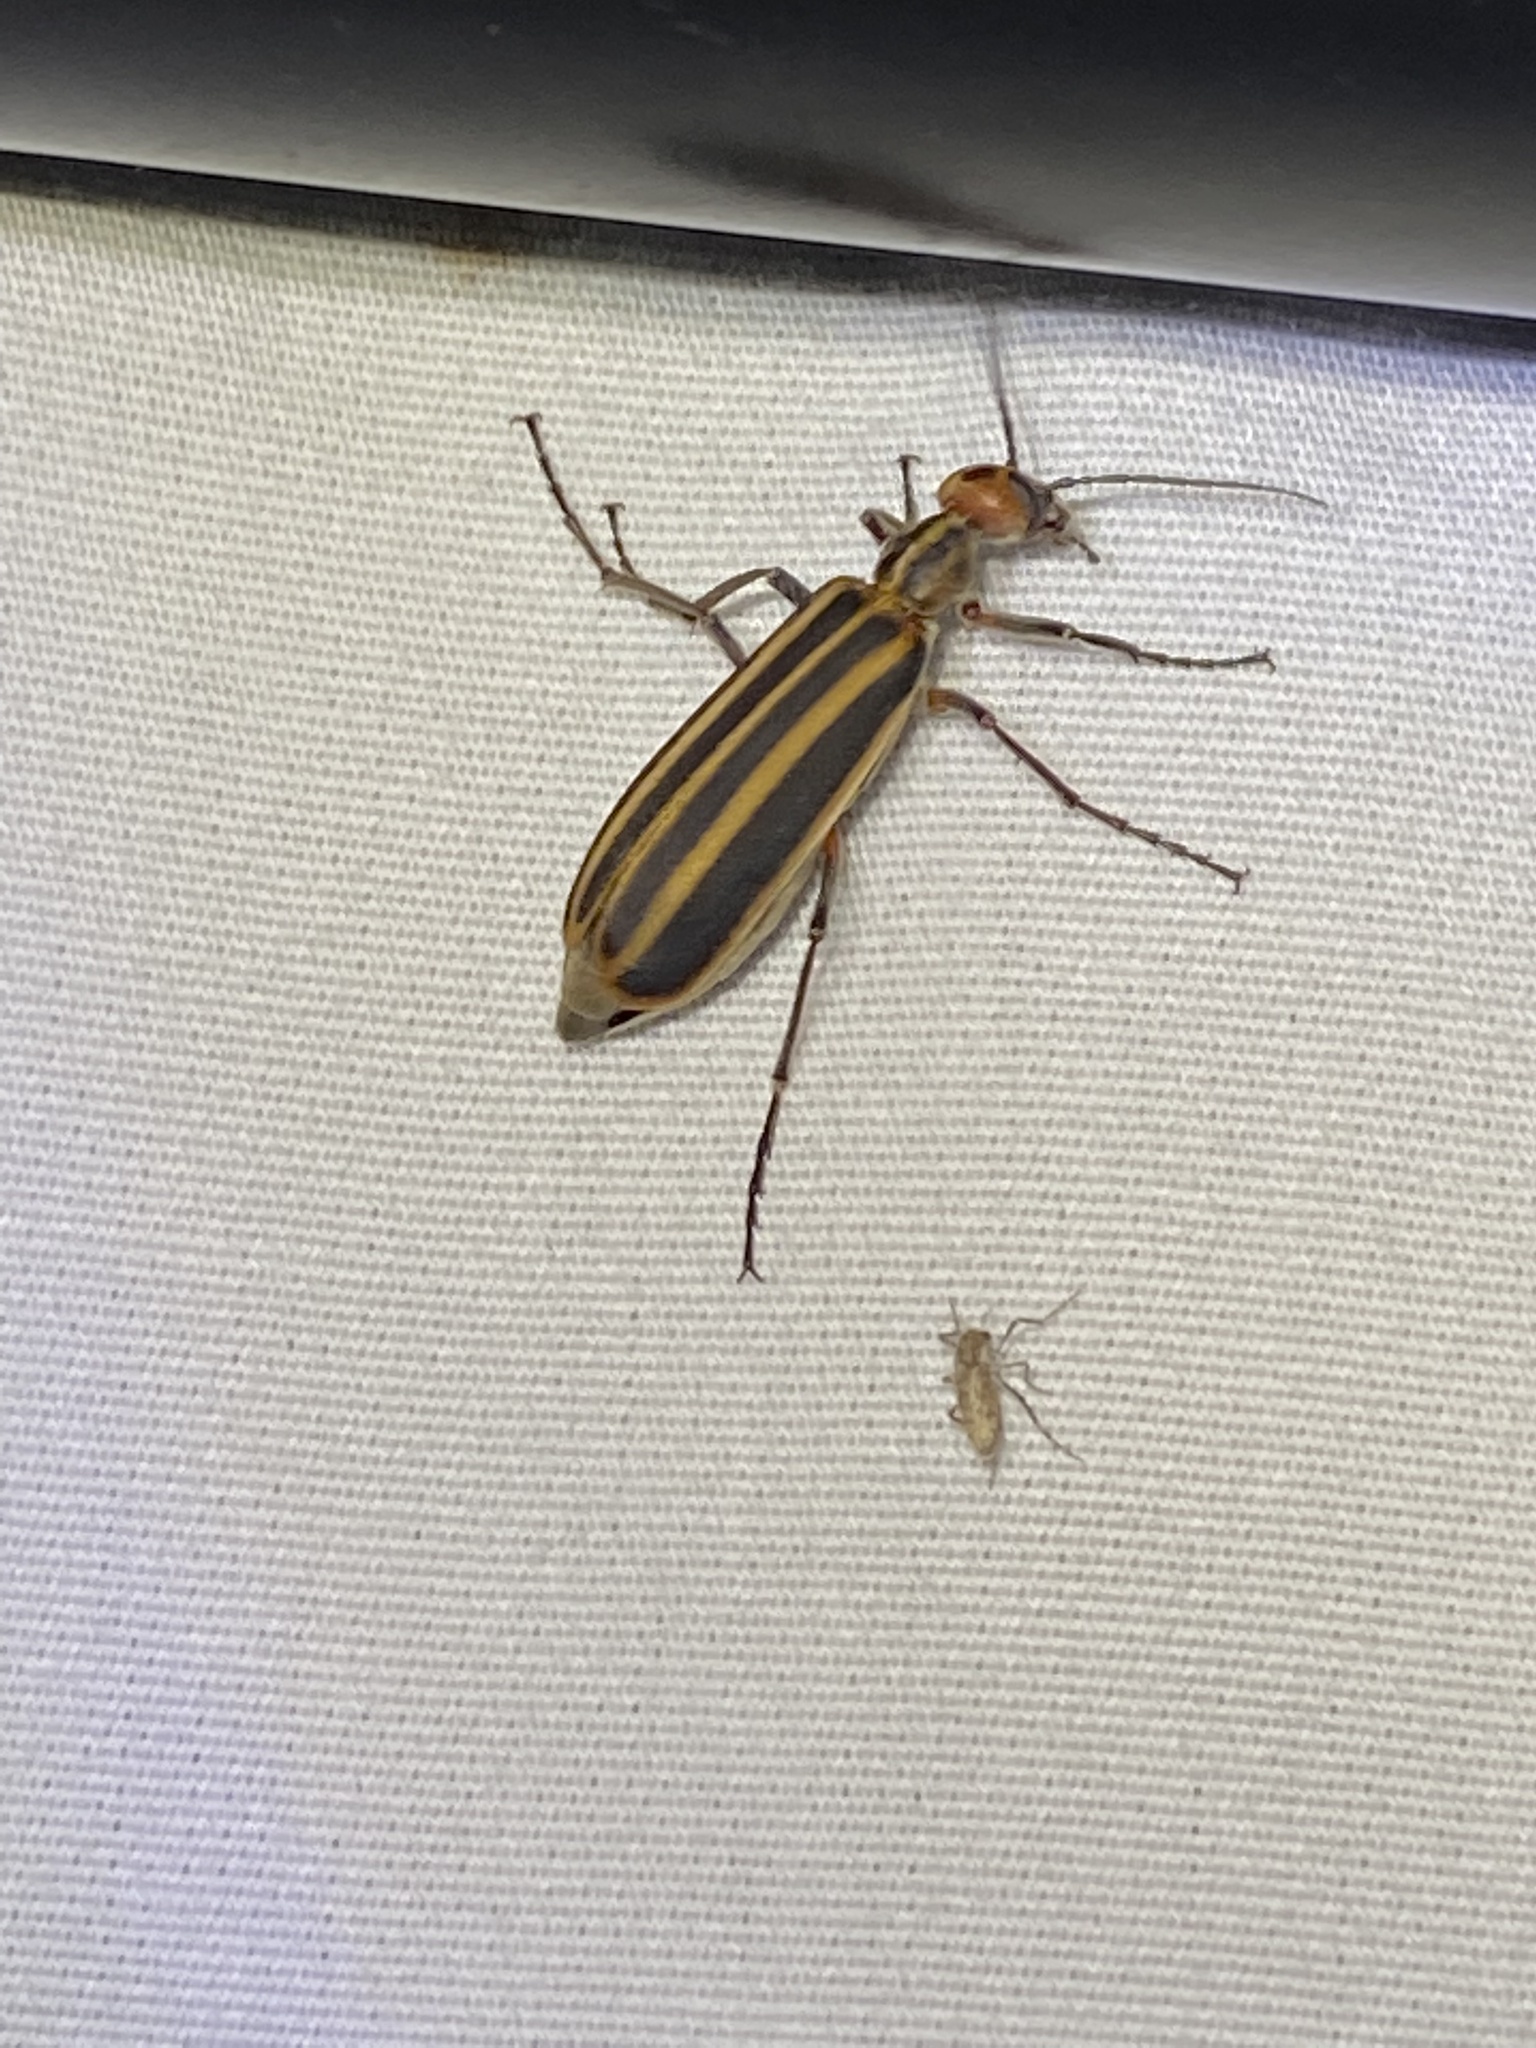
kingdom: Animalia
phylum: Arthropoda
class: Insecta
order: Coleoptera
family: Meloidae
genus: Epicauta
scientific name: Epicauta vittata
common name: Old-fashioned potato beetle
